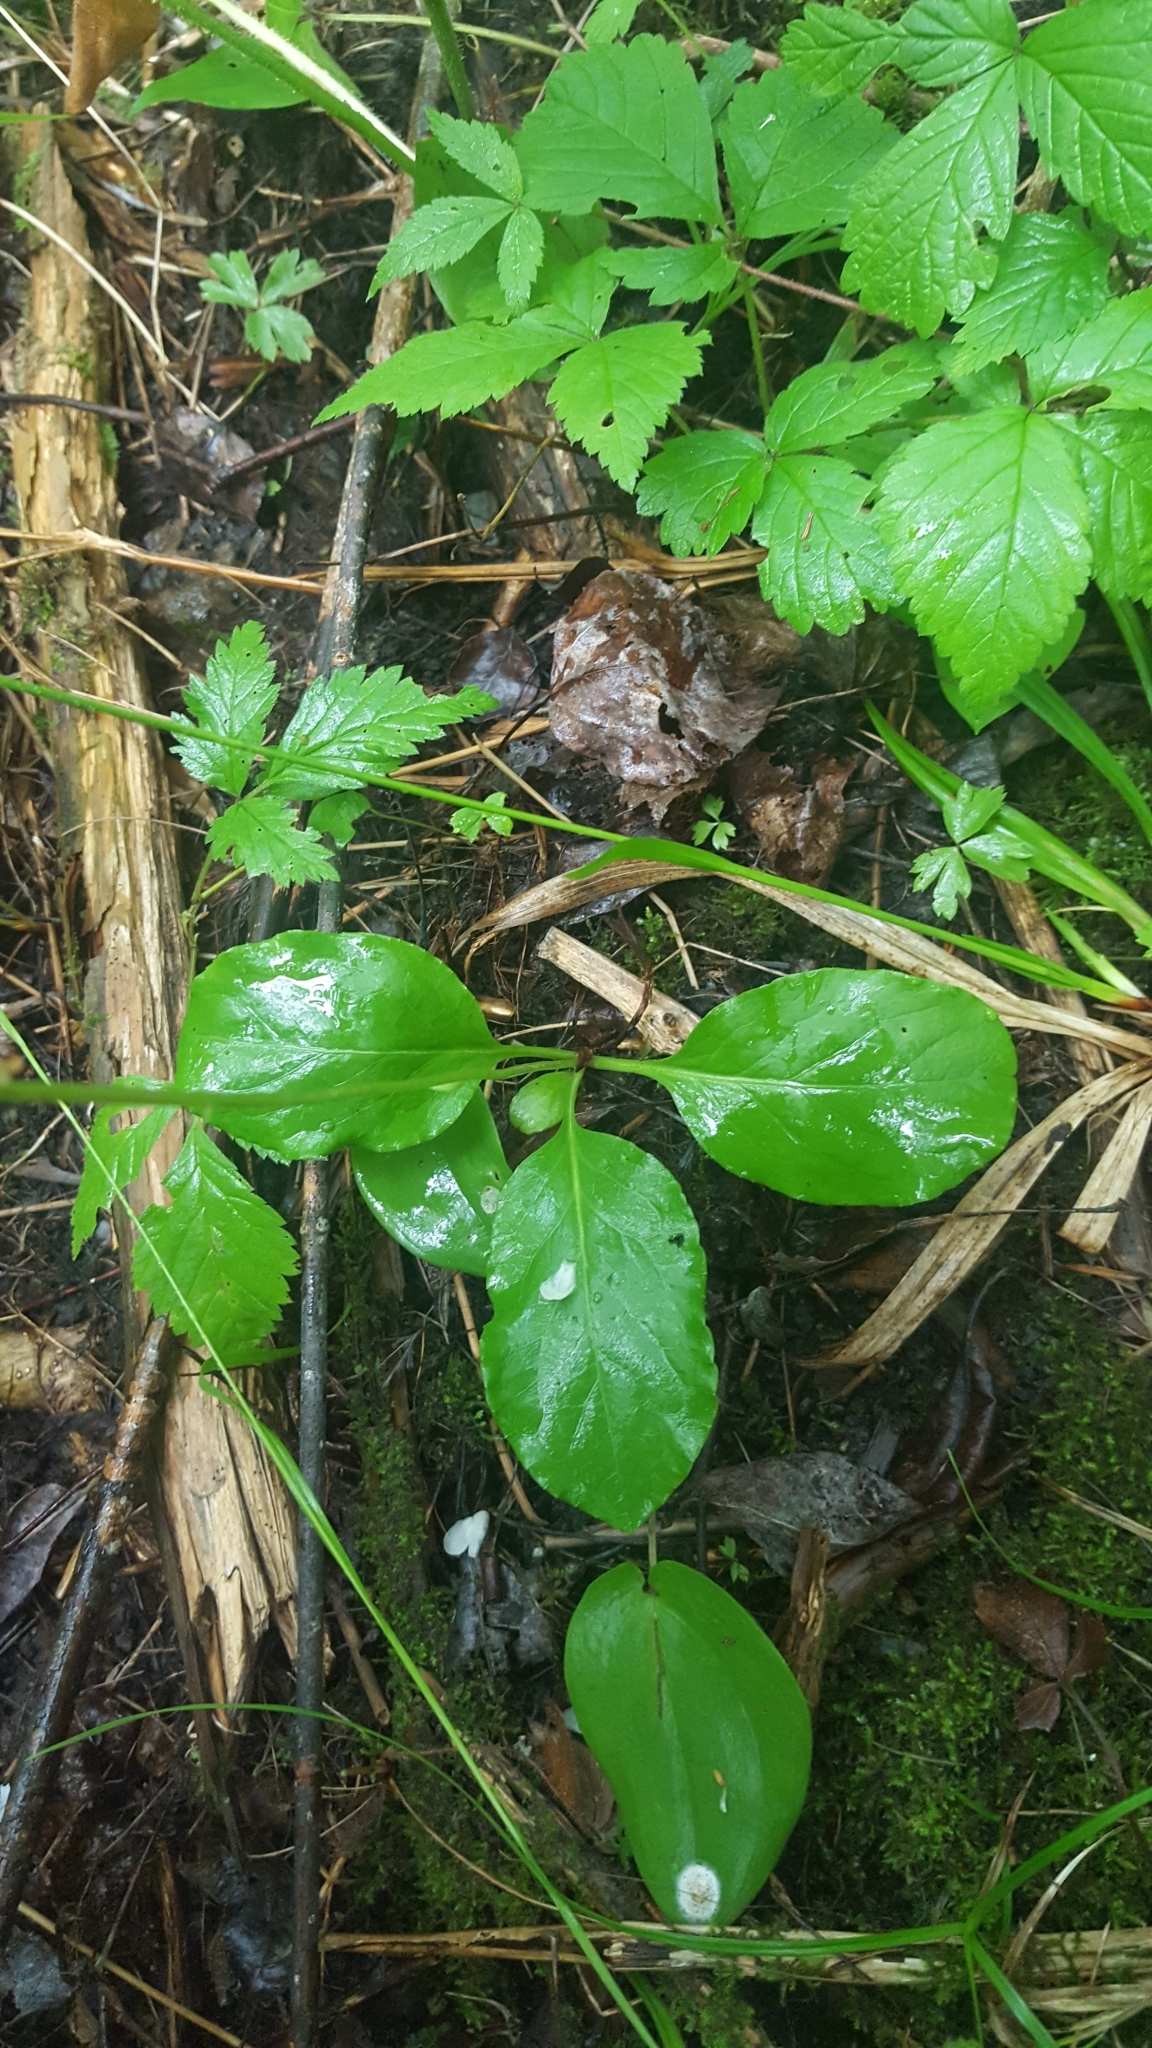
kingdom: Plantae
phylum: Tracheophyta
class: Magnoliopsida
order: Ericales
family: Ericaceae
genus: Pyrola
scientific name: Pyrola elliptica
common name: Shinleaf
